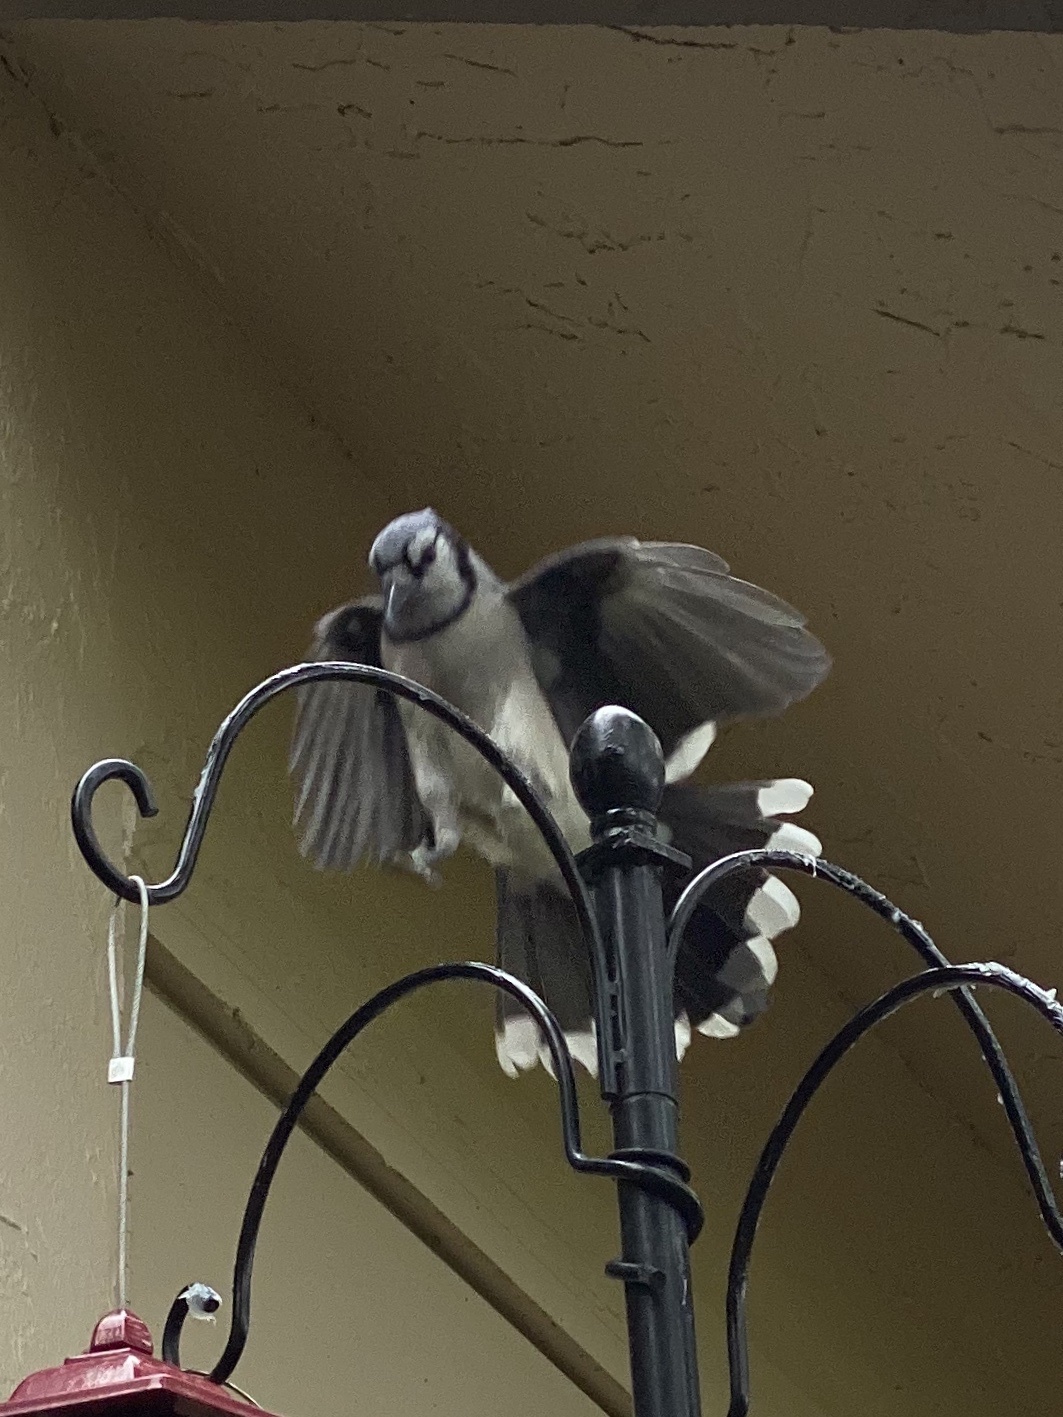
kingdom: Animalia
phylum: Chordata
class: Aves
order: Passeriformes
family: Corvidae
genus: Cyanocitta
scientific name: Cyanocitta cristata
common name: Blue jay
